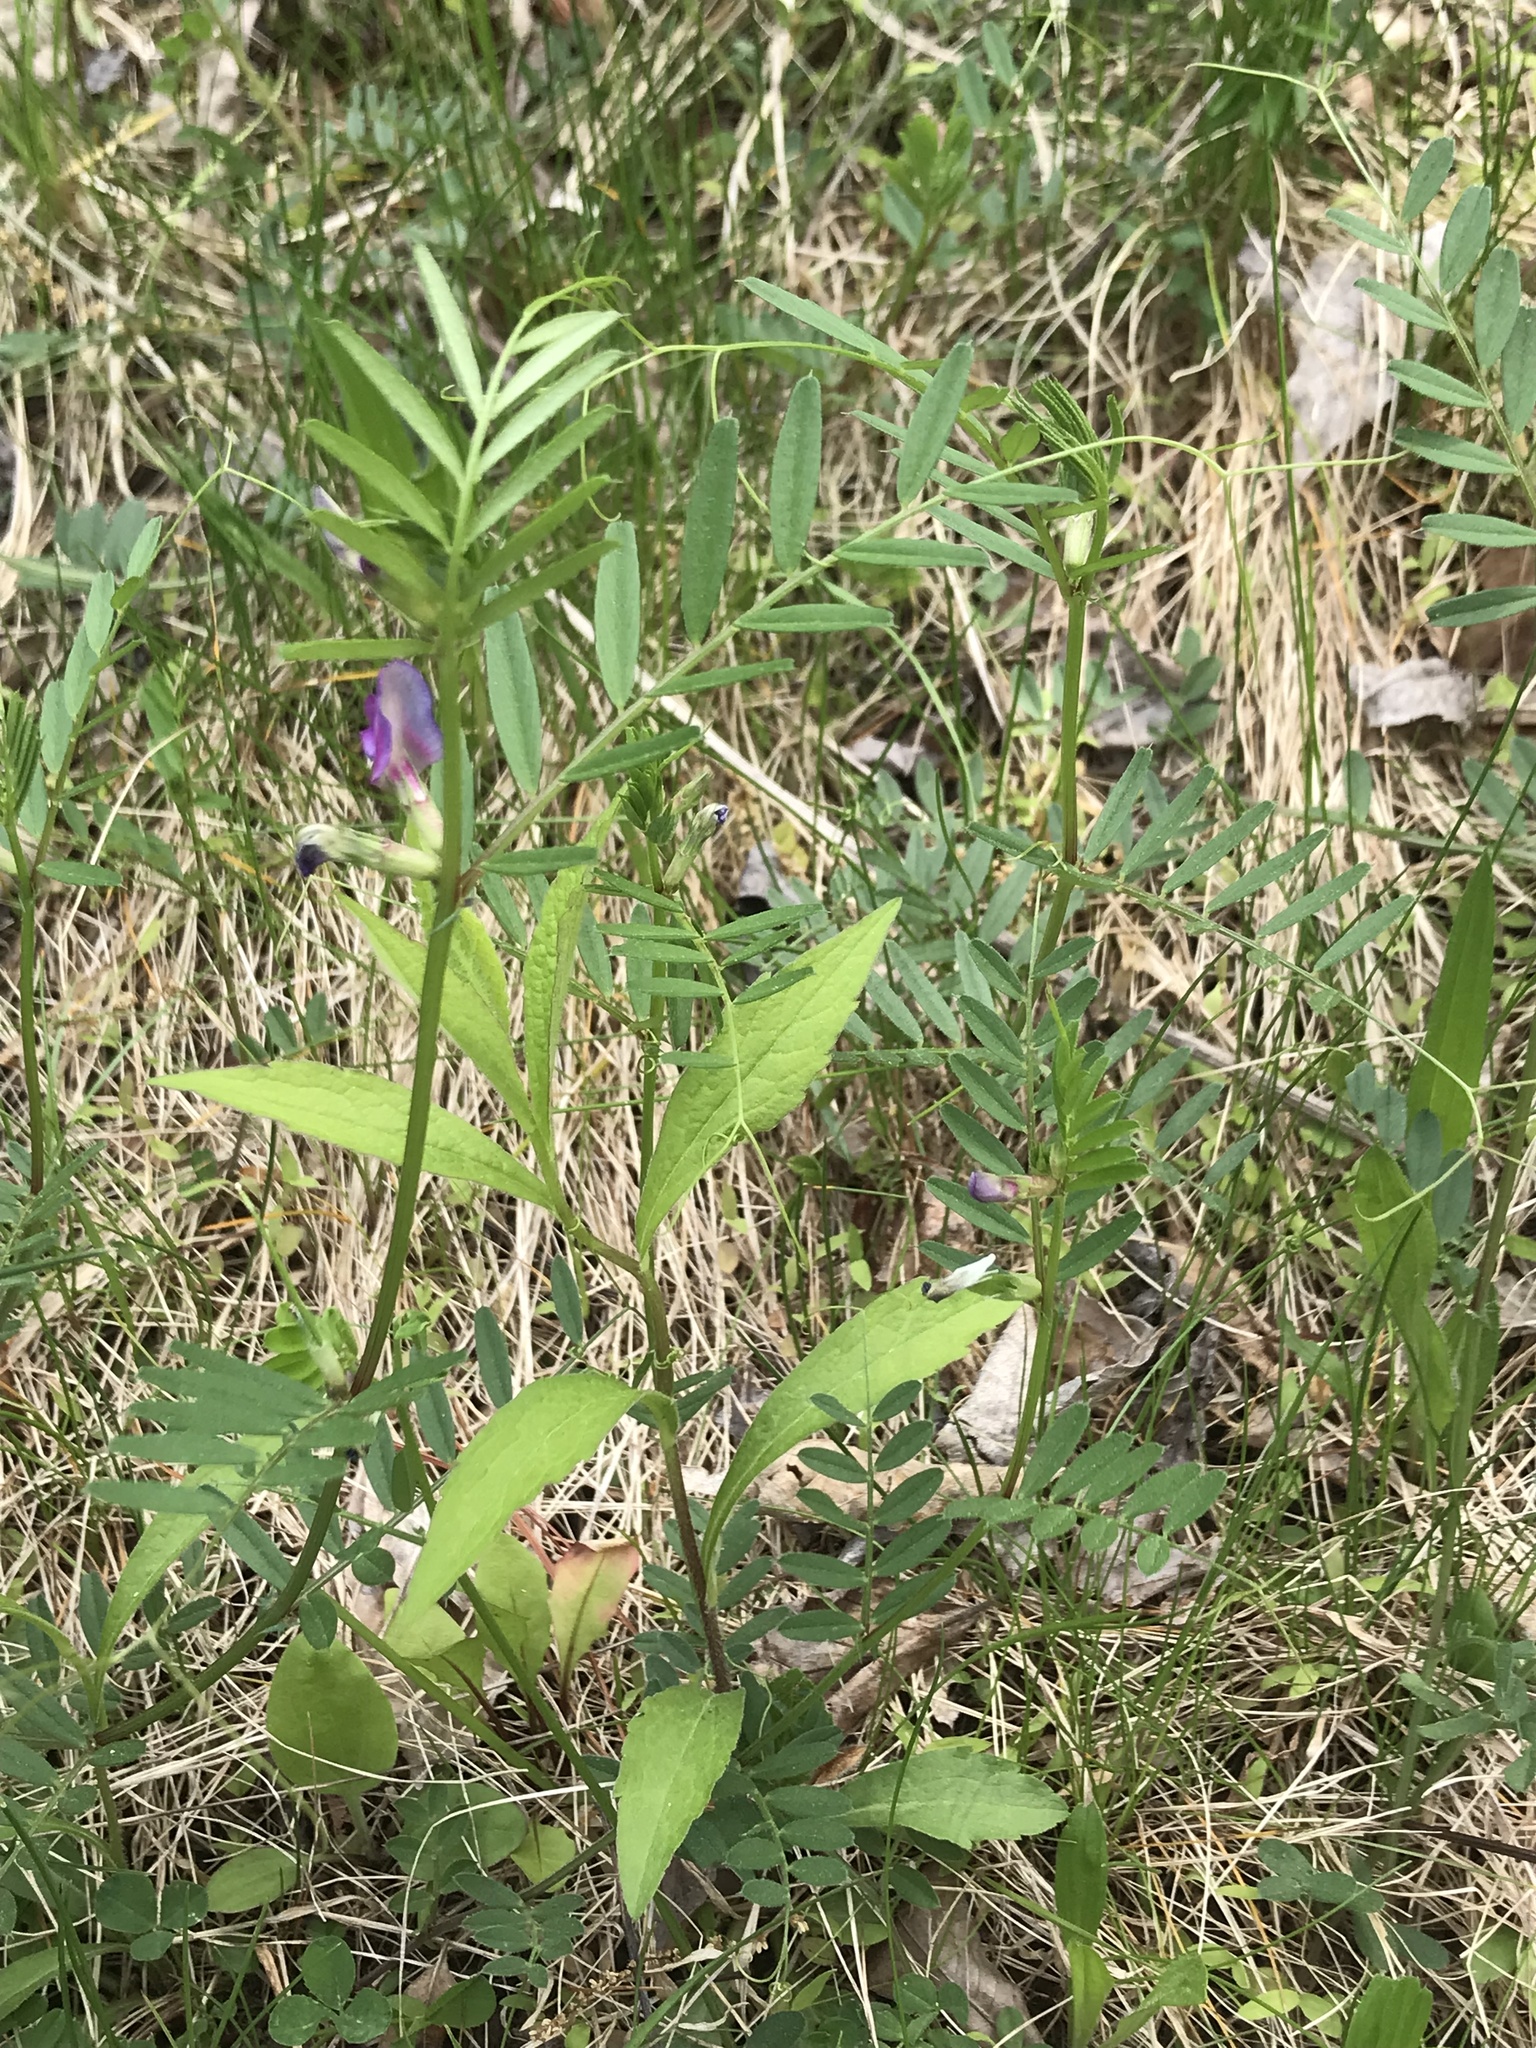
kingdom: Plantae
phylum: Tracheophyta
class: Magnoliopsida
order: Fabales
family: Fabaceae
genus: Vicia
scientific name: Vicia sativa
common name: Garden vetch
